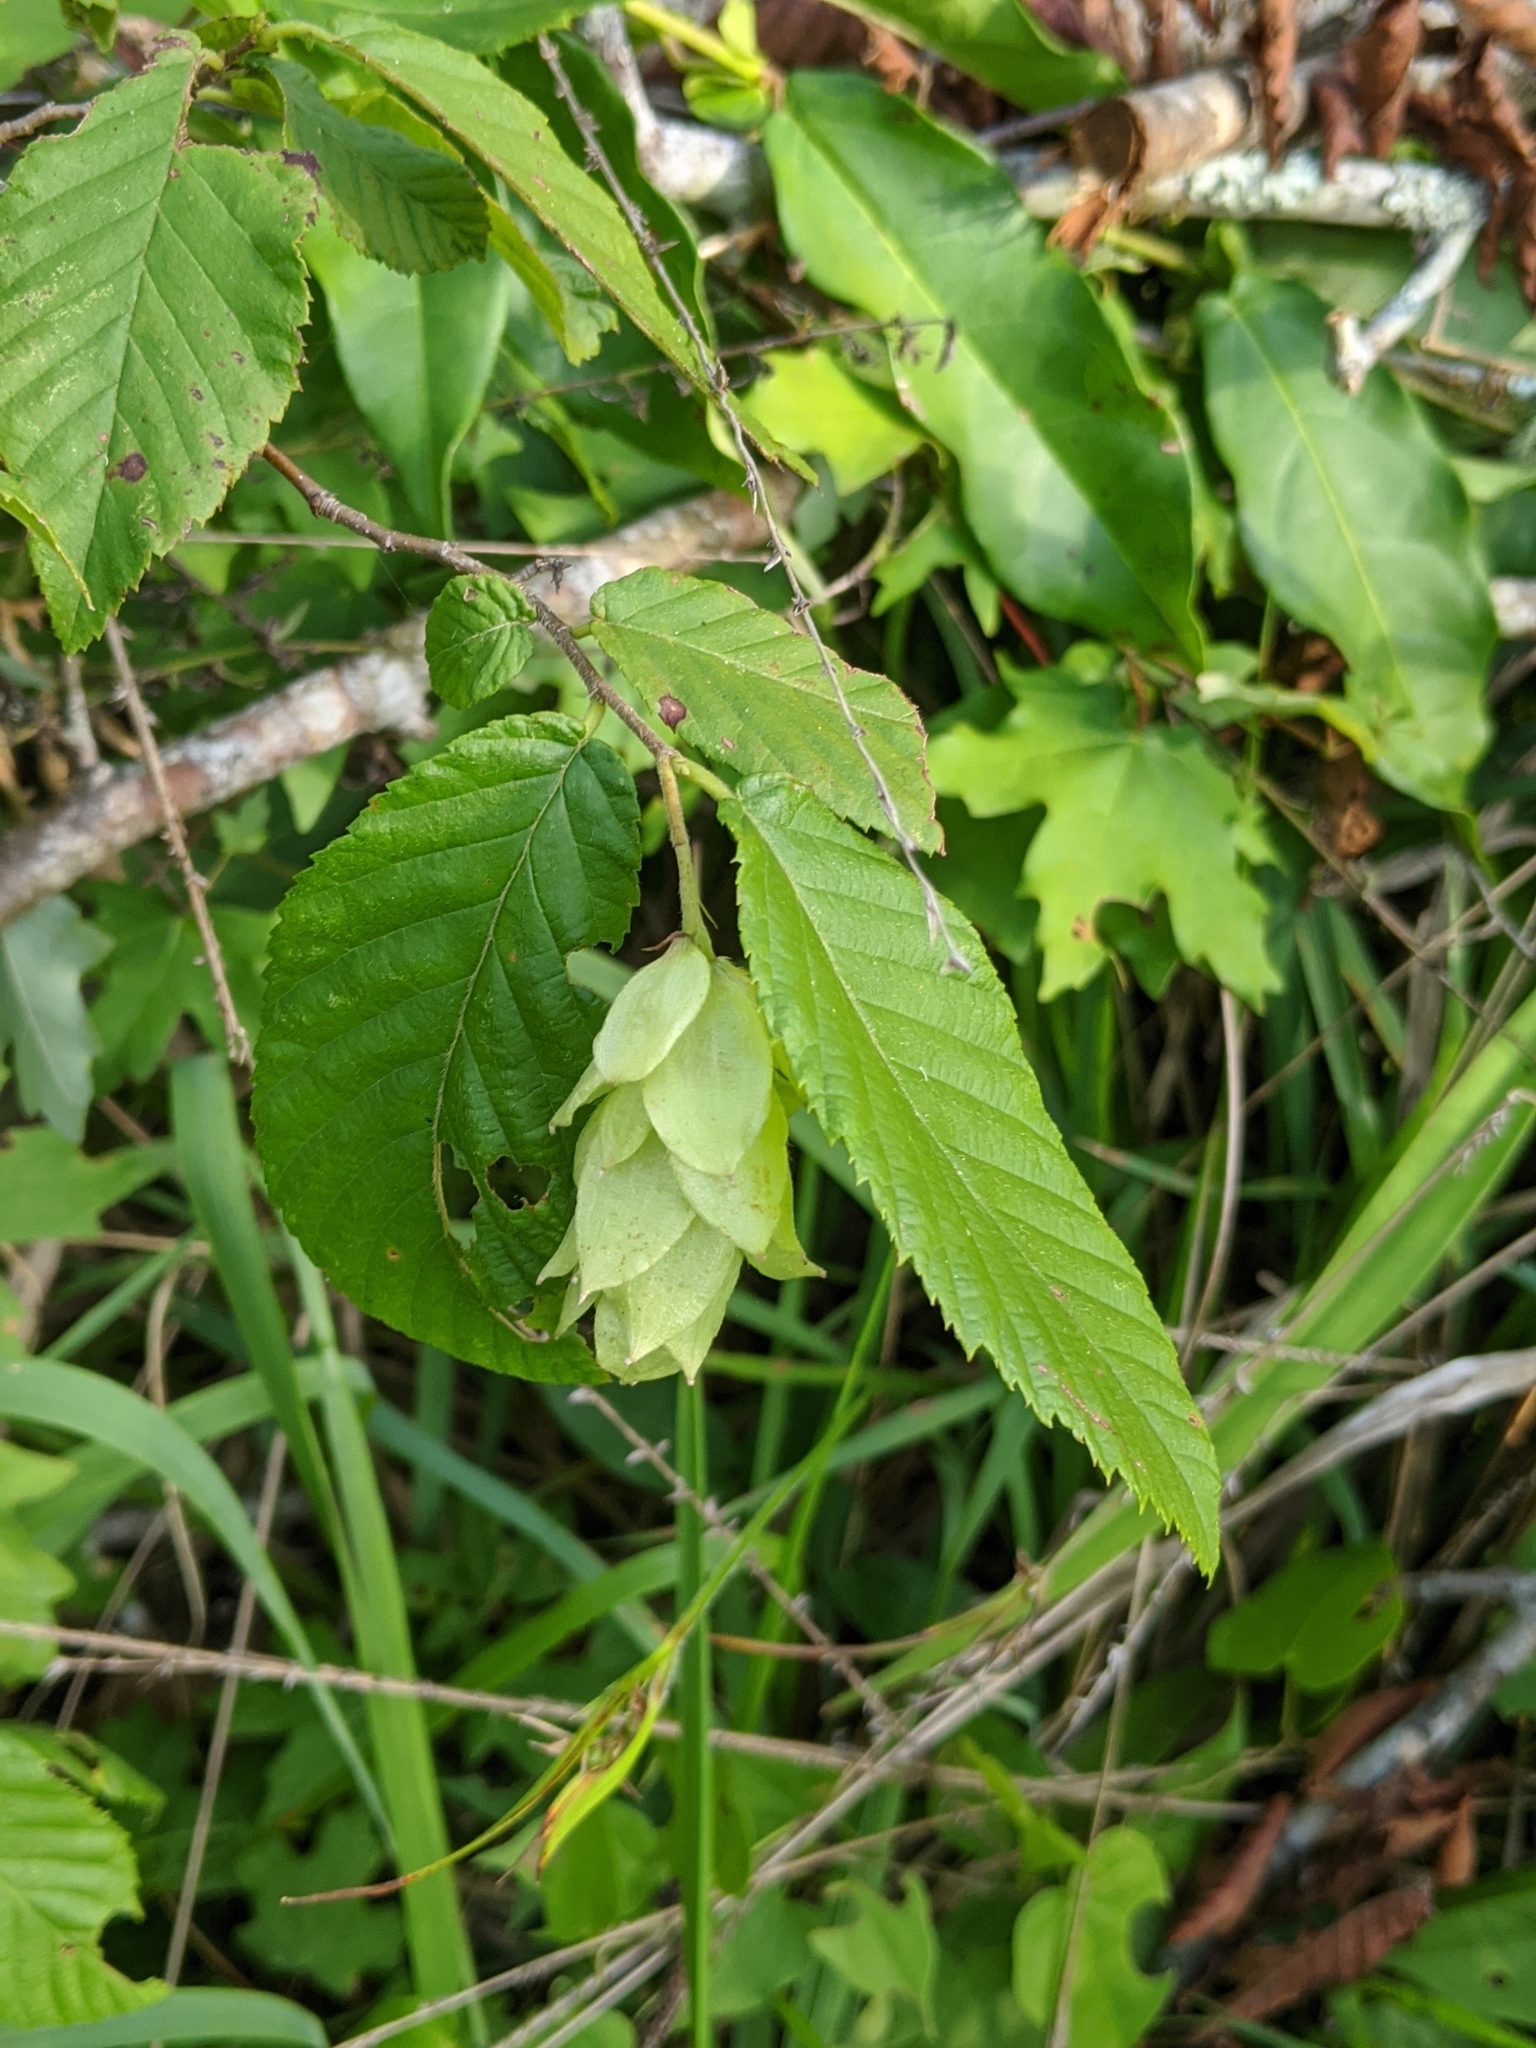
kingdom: Plantae
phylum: Tracheophyta
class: Magnoliopsida
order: Fagales
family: Betulaceae
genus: Ostrya
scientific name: Ostrya virginiana
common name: Ironwood
